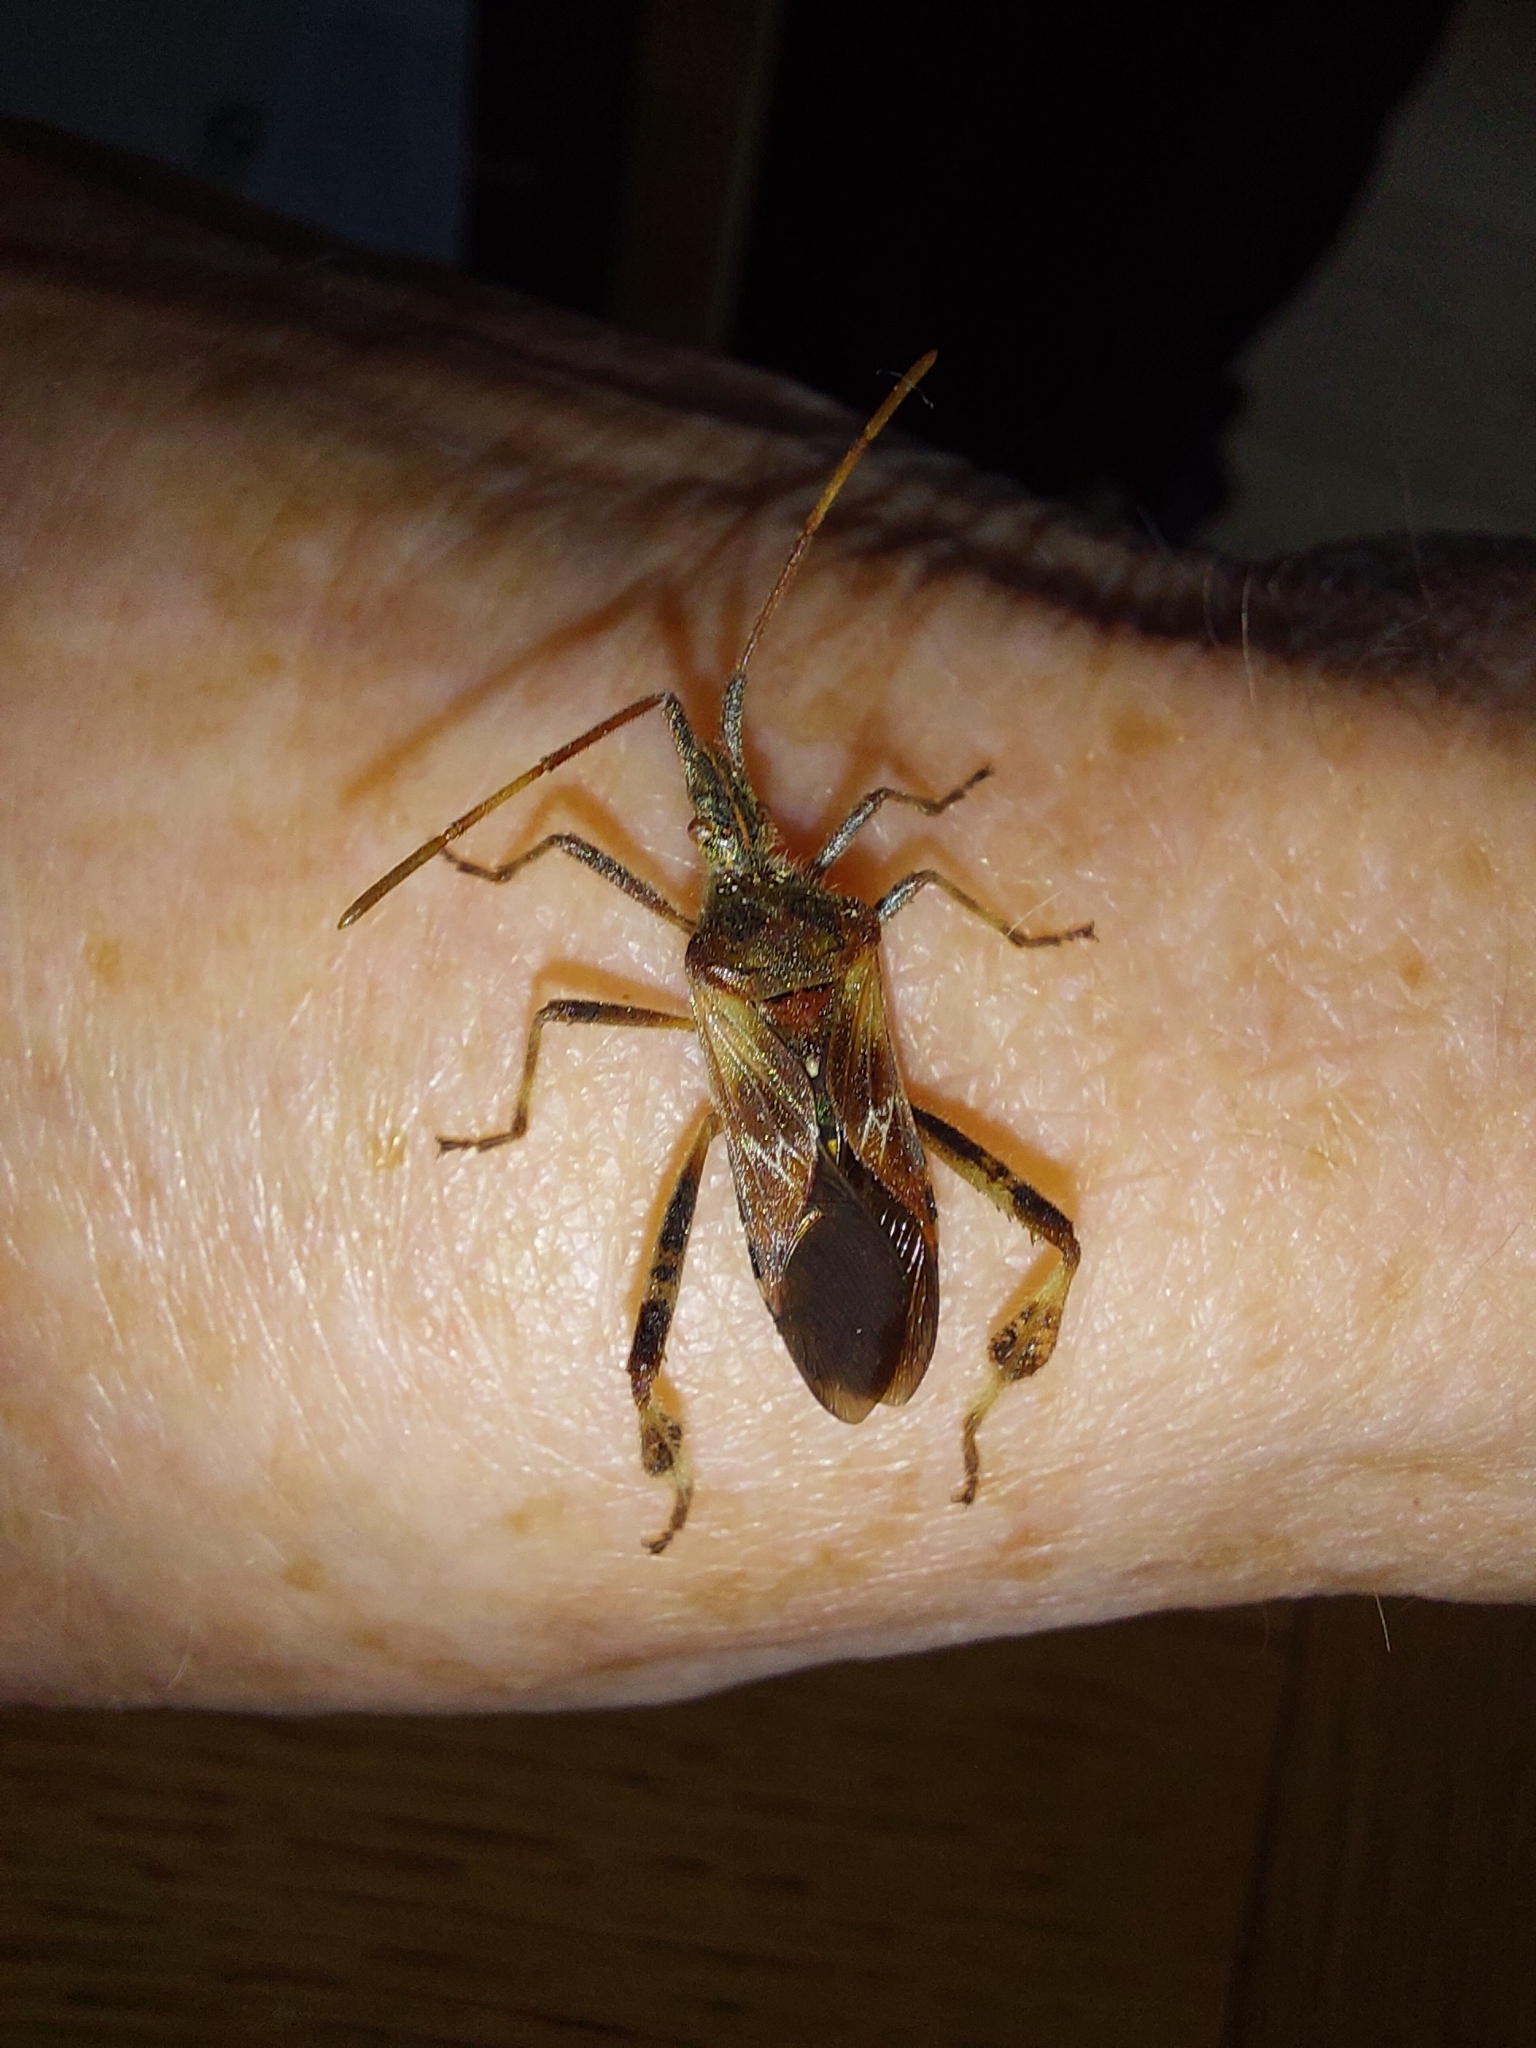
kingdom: Animalia
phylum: Arthropoda
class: Insecta
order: Hemiptera
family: Coreidae
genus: Leptoglossus
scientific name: Leptoglossus occidentalis
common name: Western conifer-seed bug
